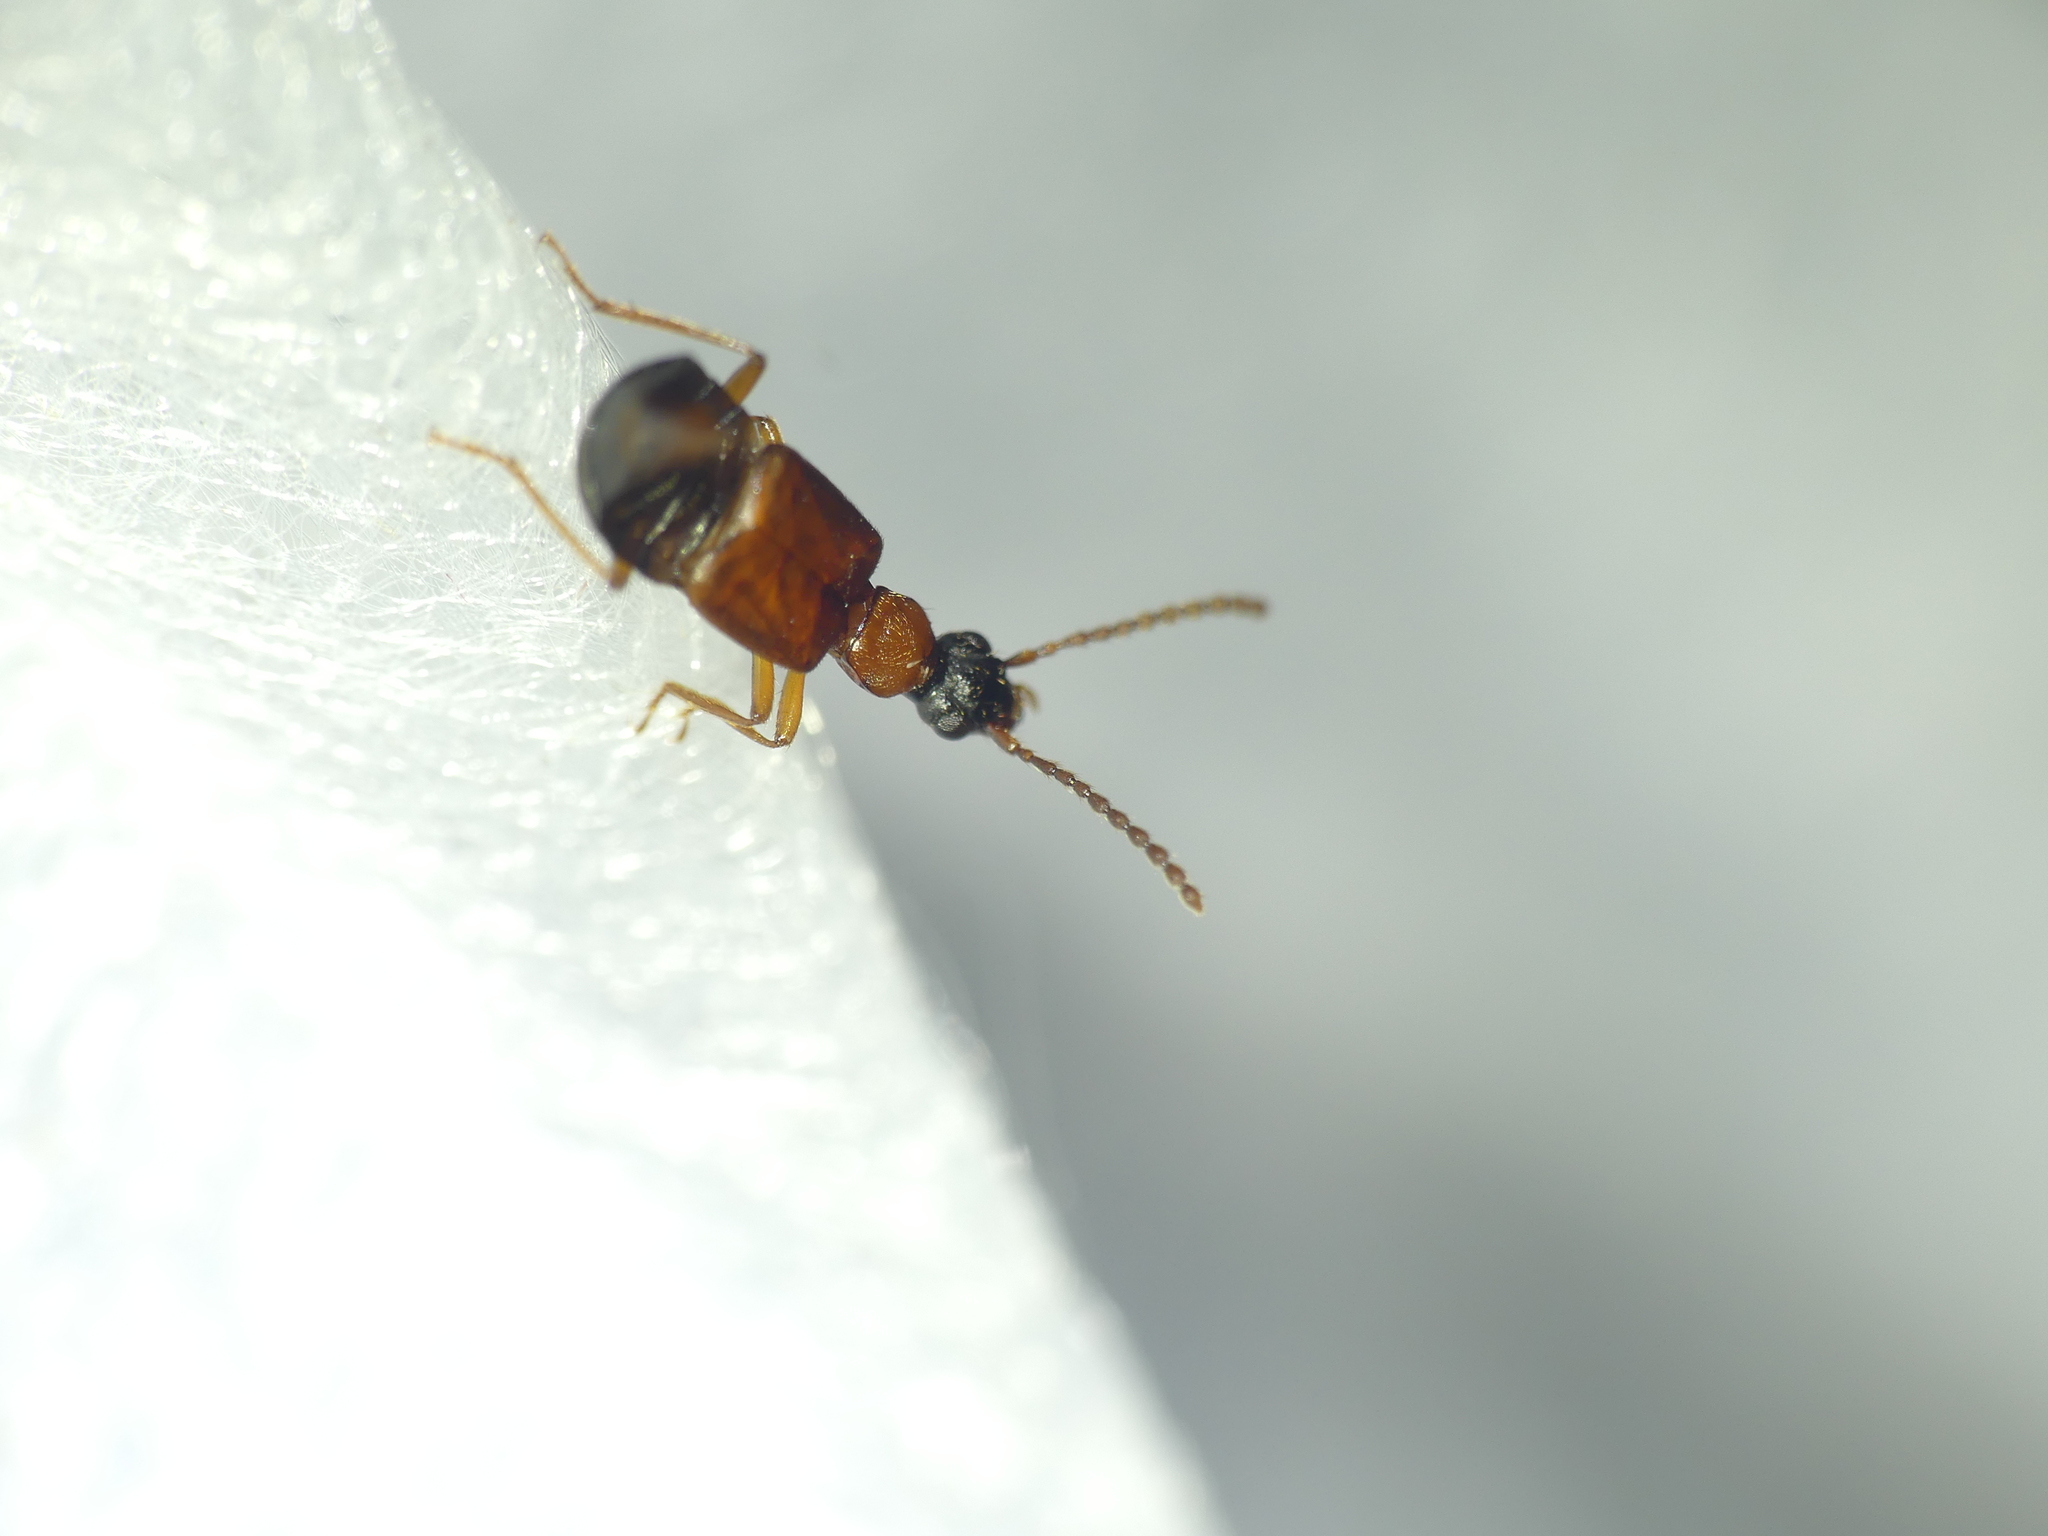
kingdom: Animalia
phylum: Arthropoda
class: Insecta
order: Coleoptera
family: Staphylinidae
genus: Deleaster
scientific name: Deleaster dichrous
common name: Rove beetle
